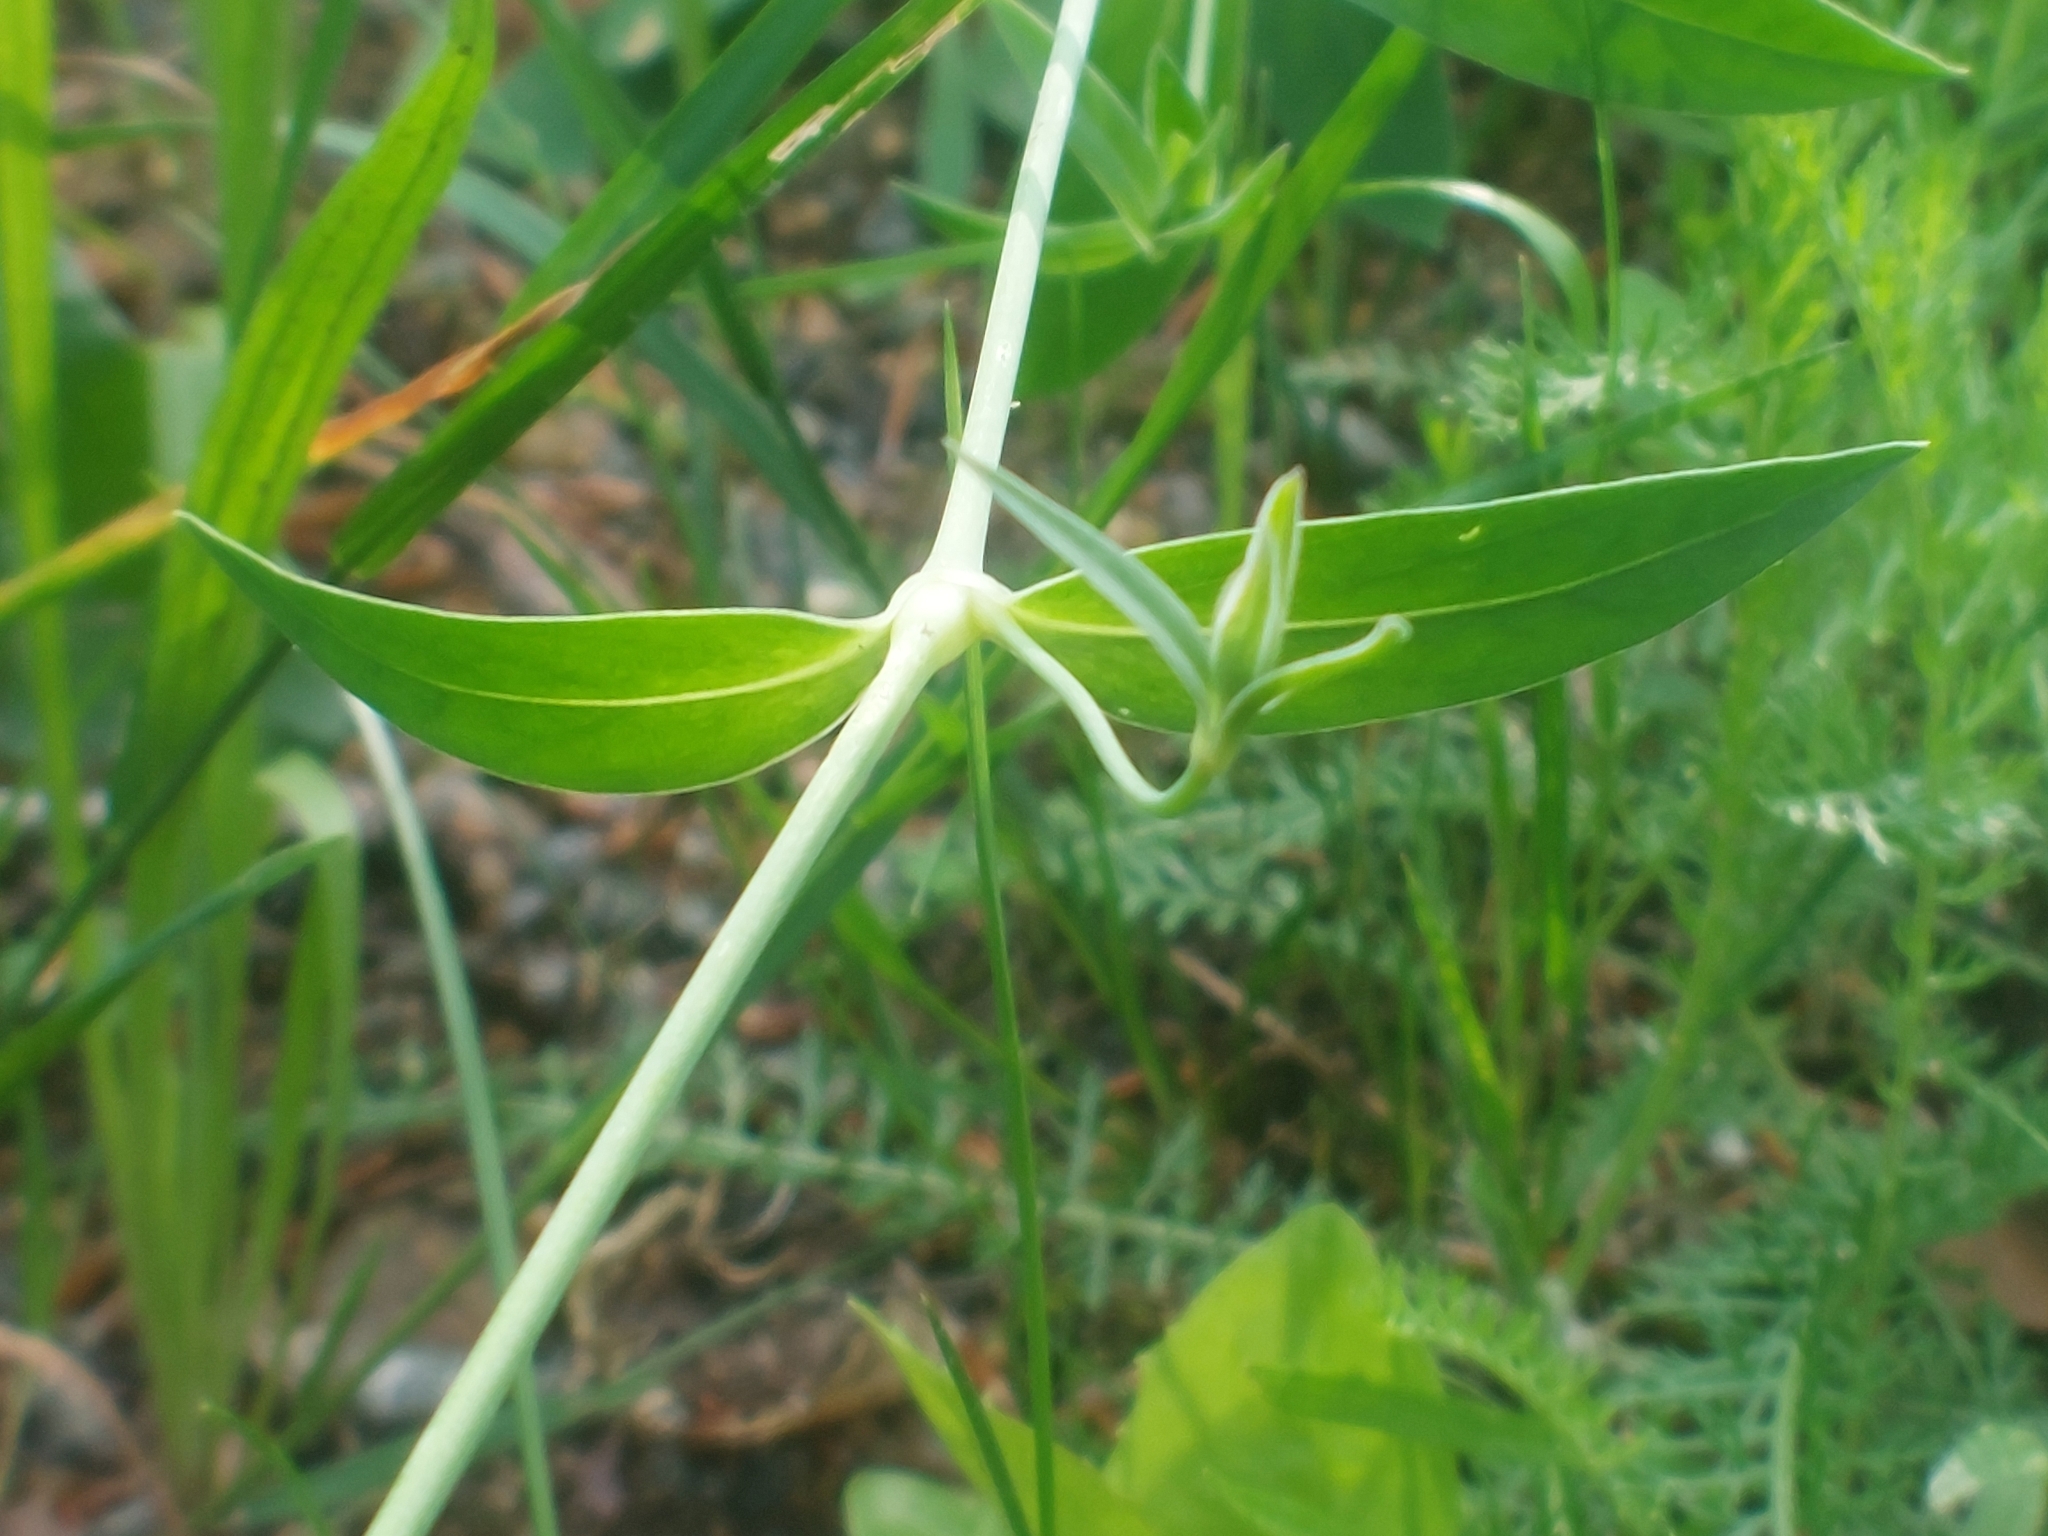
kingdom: Plantae
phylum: Tracheophyta
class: Magnoliopsida
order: Caryophyllales
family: Caryophyllaceae
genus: Silene
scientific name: Silene vulgaris
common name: Bladder campion
